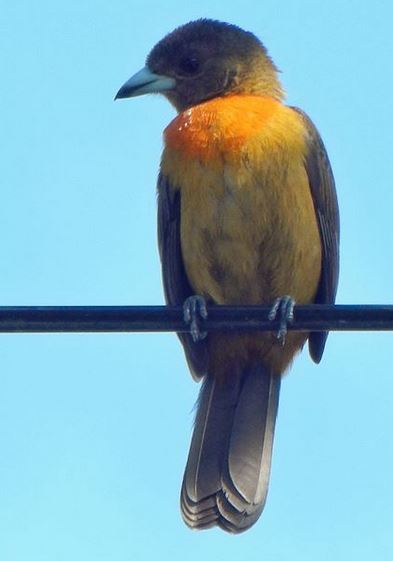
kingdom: Animalia
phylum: Chordata
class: Aves
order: Passeriformes
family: Thraupidae
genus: Ramphocelus
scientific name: Ramphocelus passerinii
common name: Passerini's tanager
